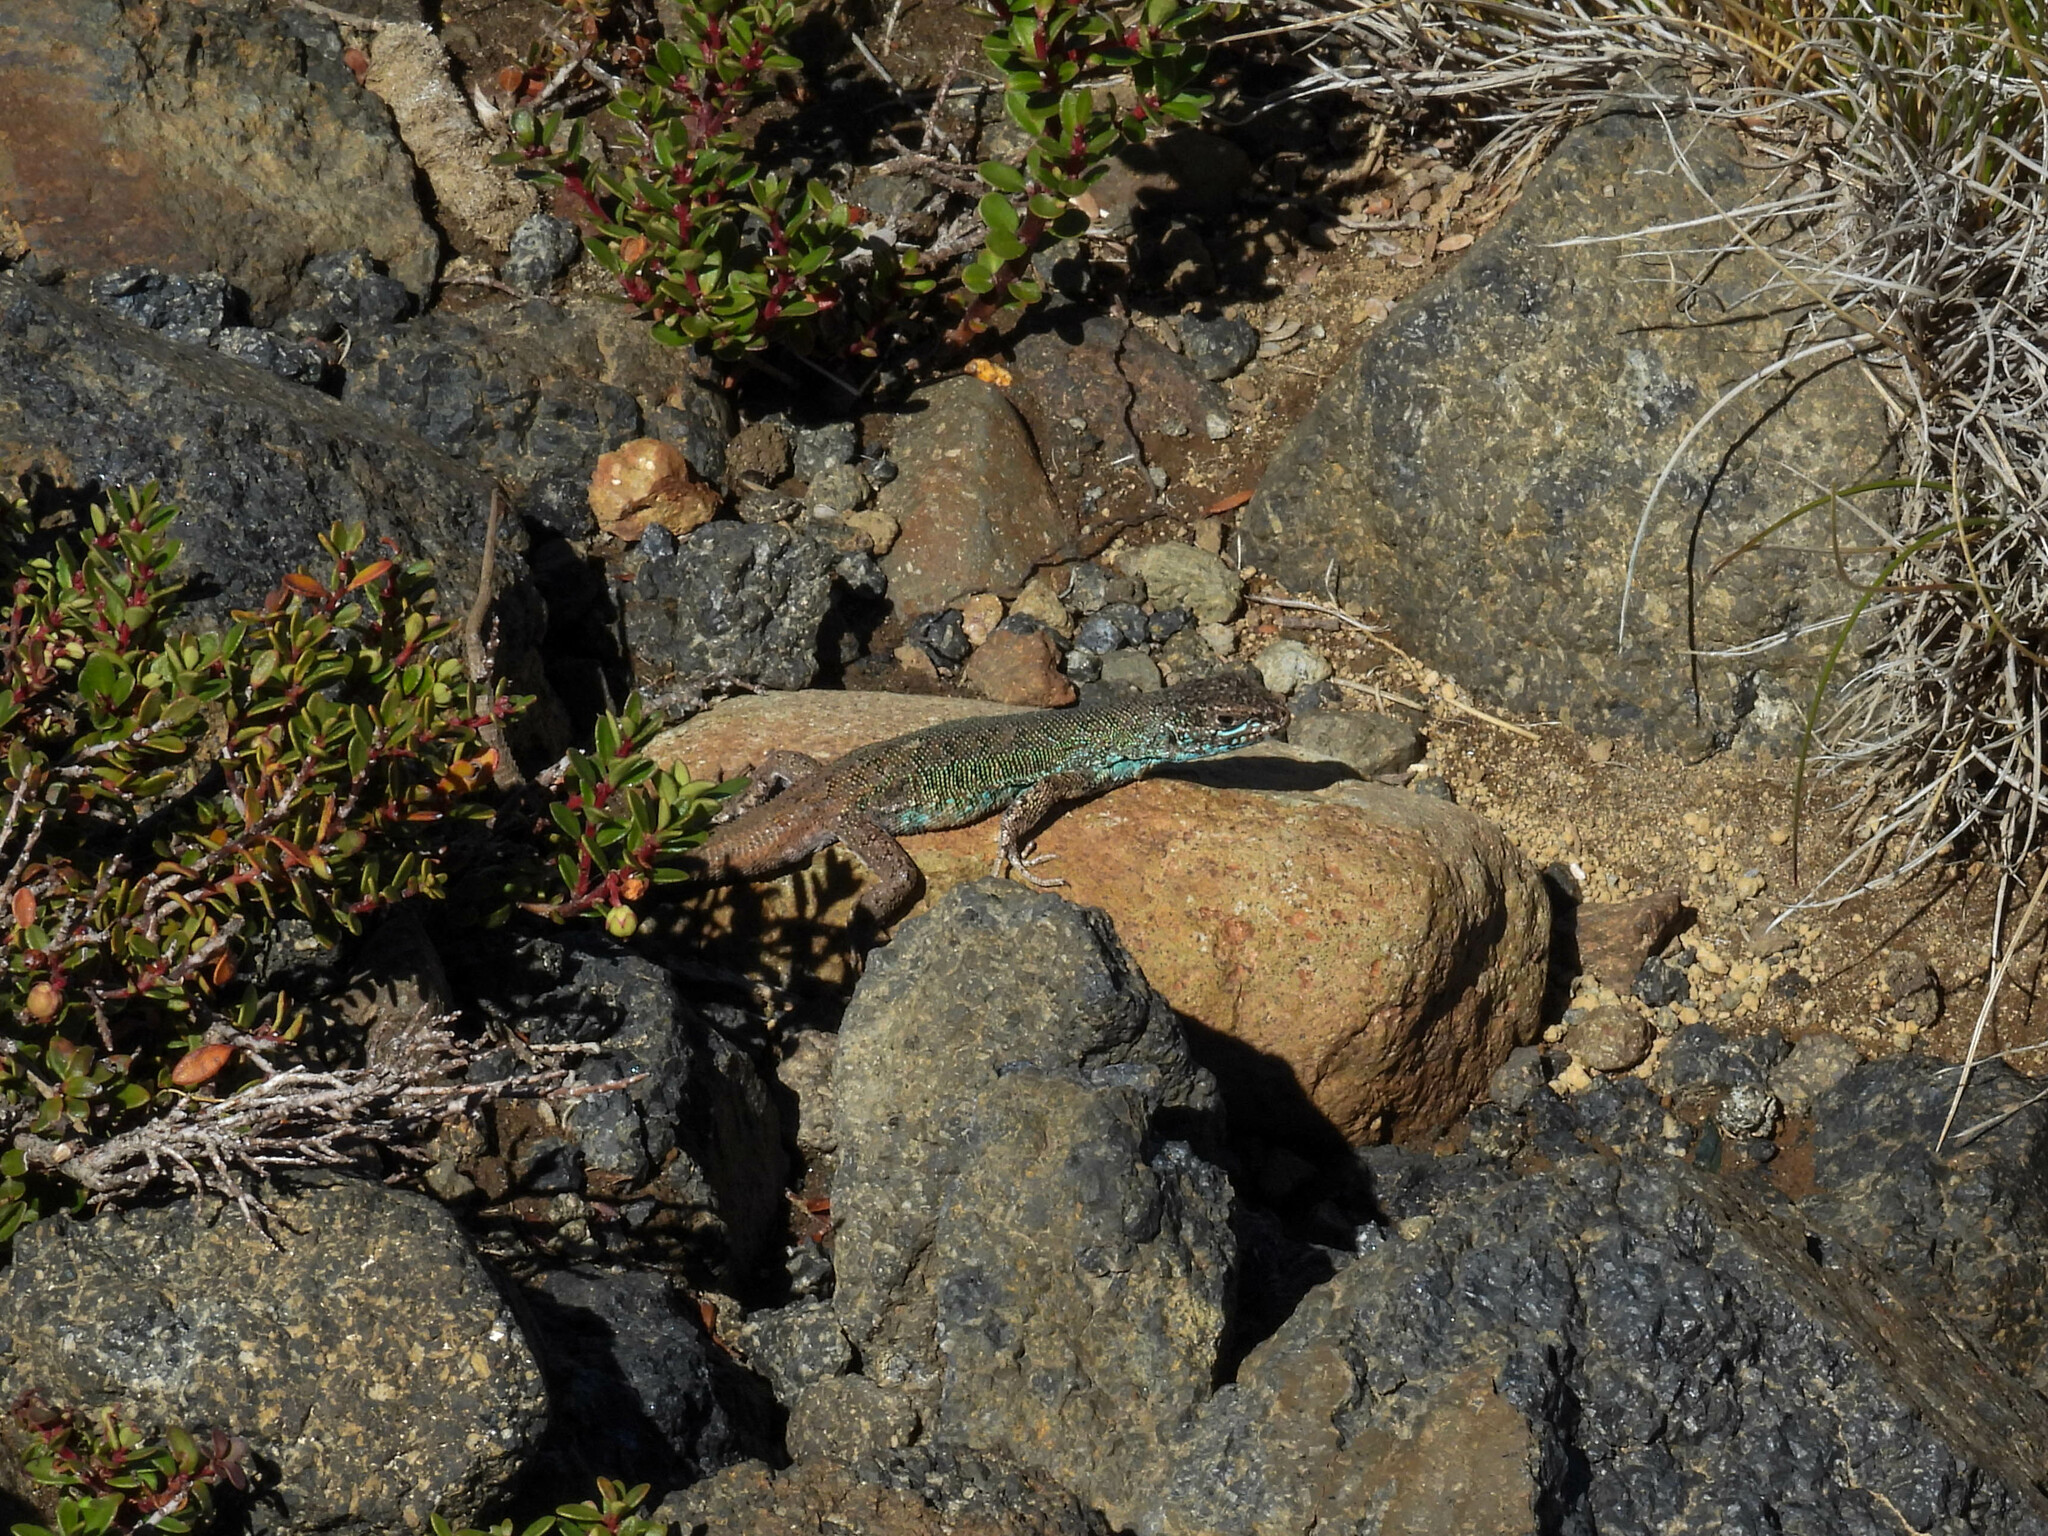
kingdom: Animalia
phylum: Chordata
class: Squamata
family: Liolaemidae
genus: Liolaemus
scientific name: Liolaemus coeruleus
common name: Blue tree iguana
